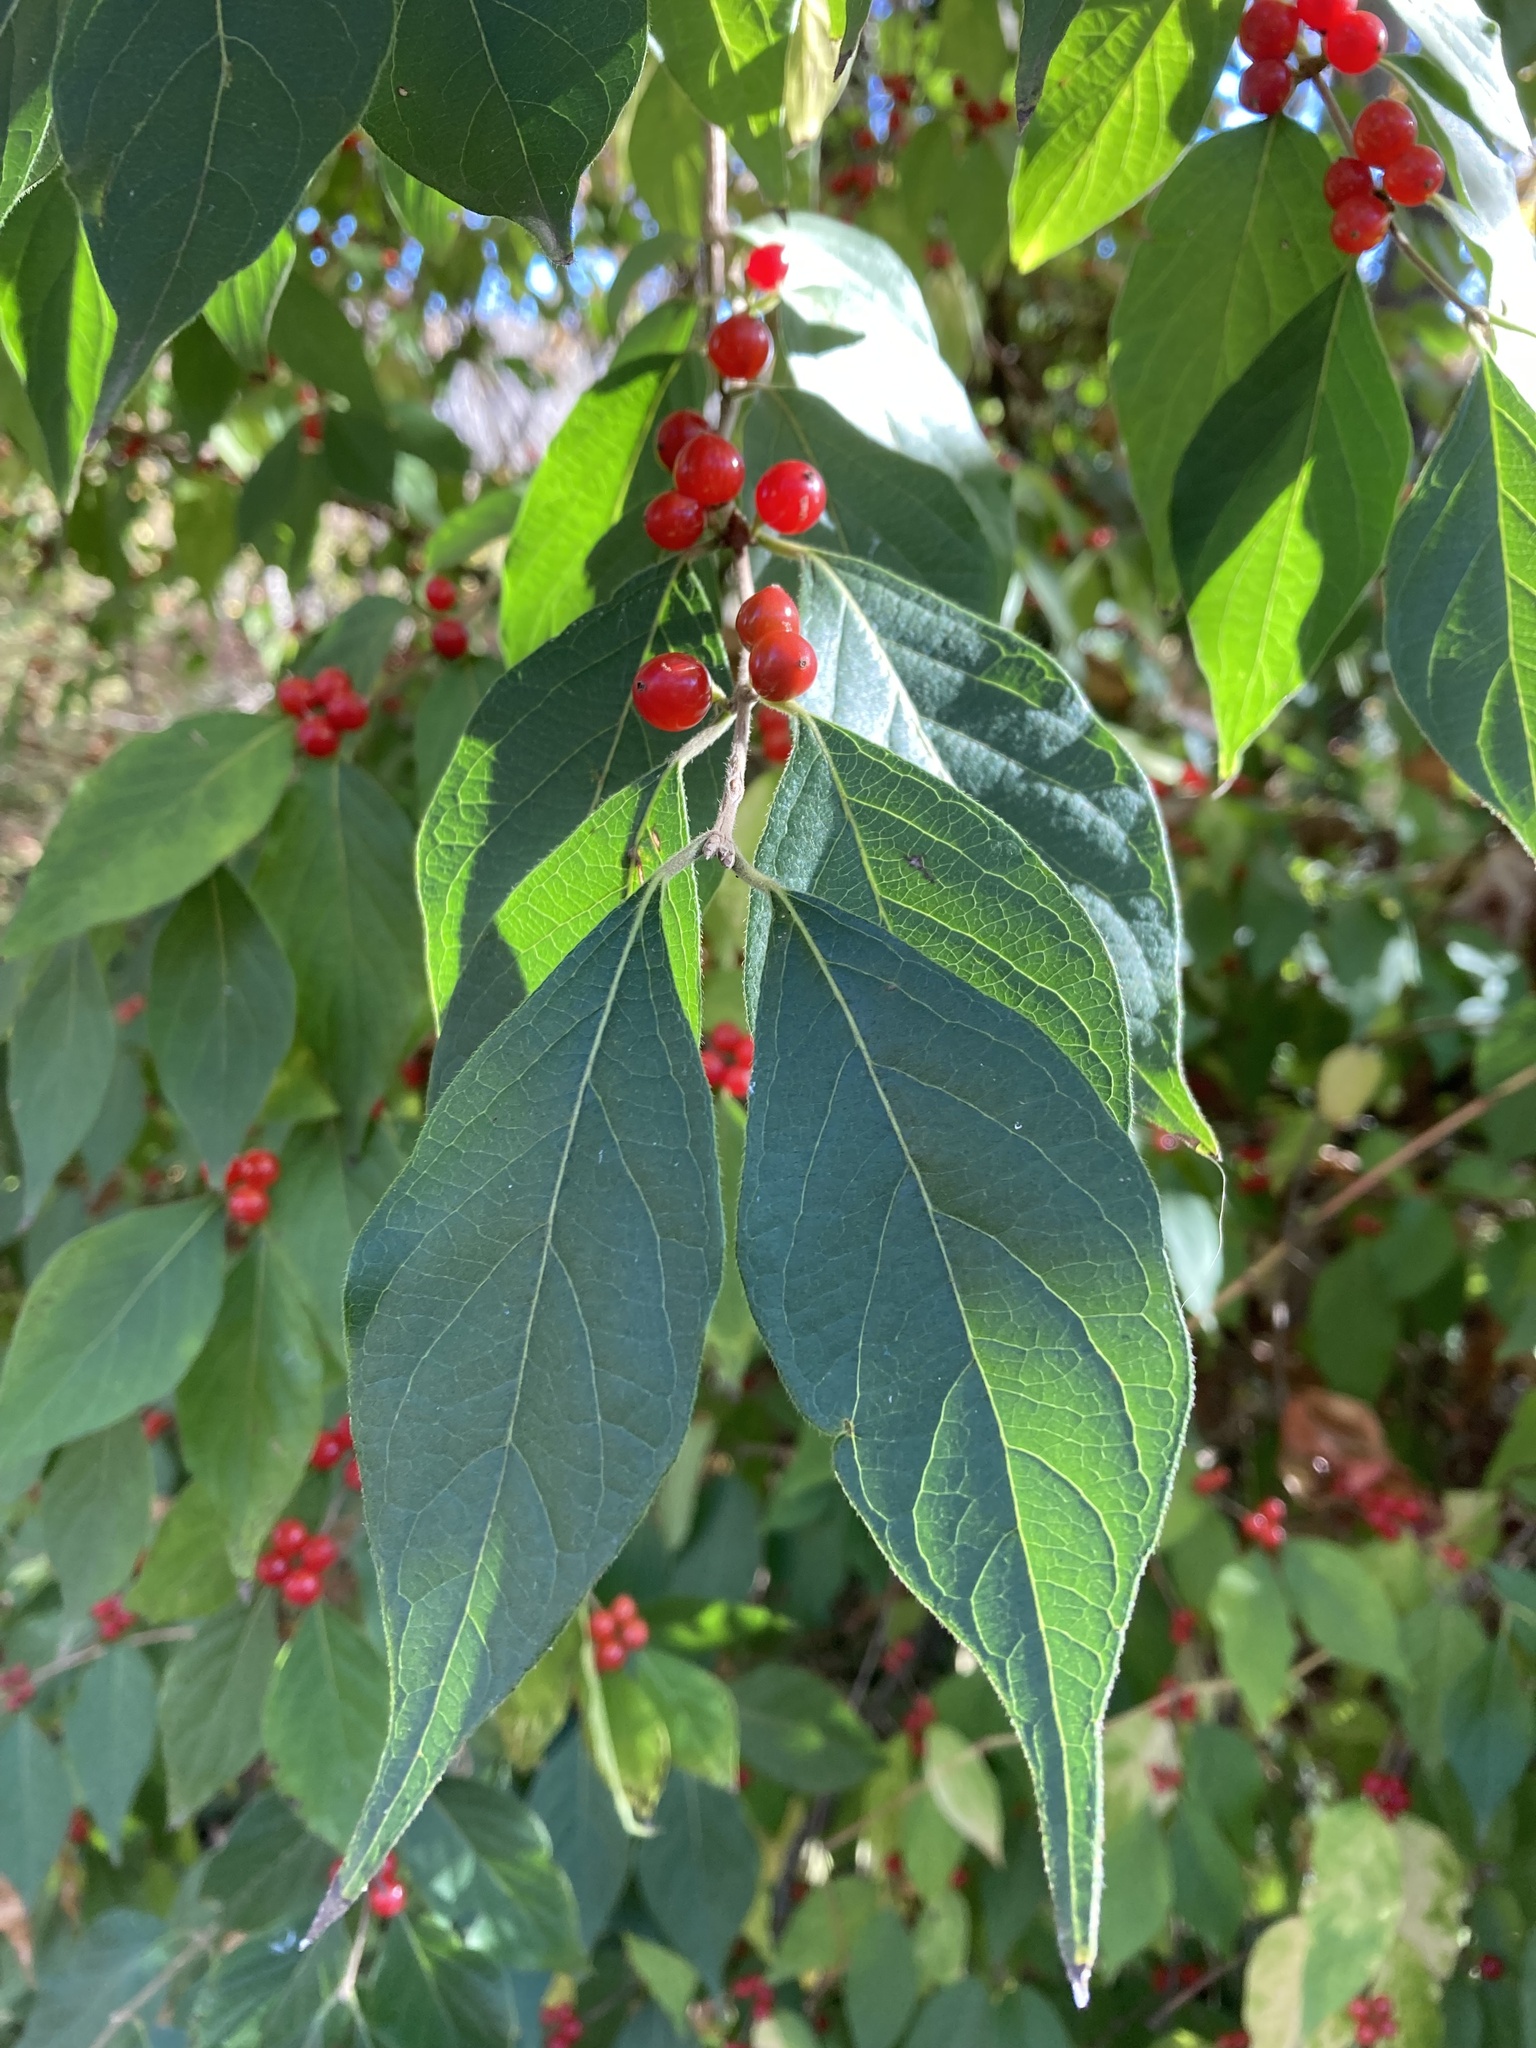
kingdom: Plantae
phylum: Tracheophyta
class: Magnoliopsida
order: Dipsacales
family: Caprifoliaceae
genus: Lonicera
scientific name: Lonicera maackii
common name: Amur honeysuckle
